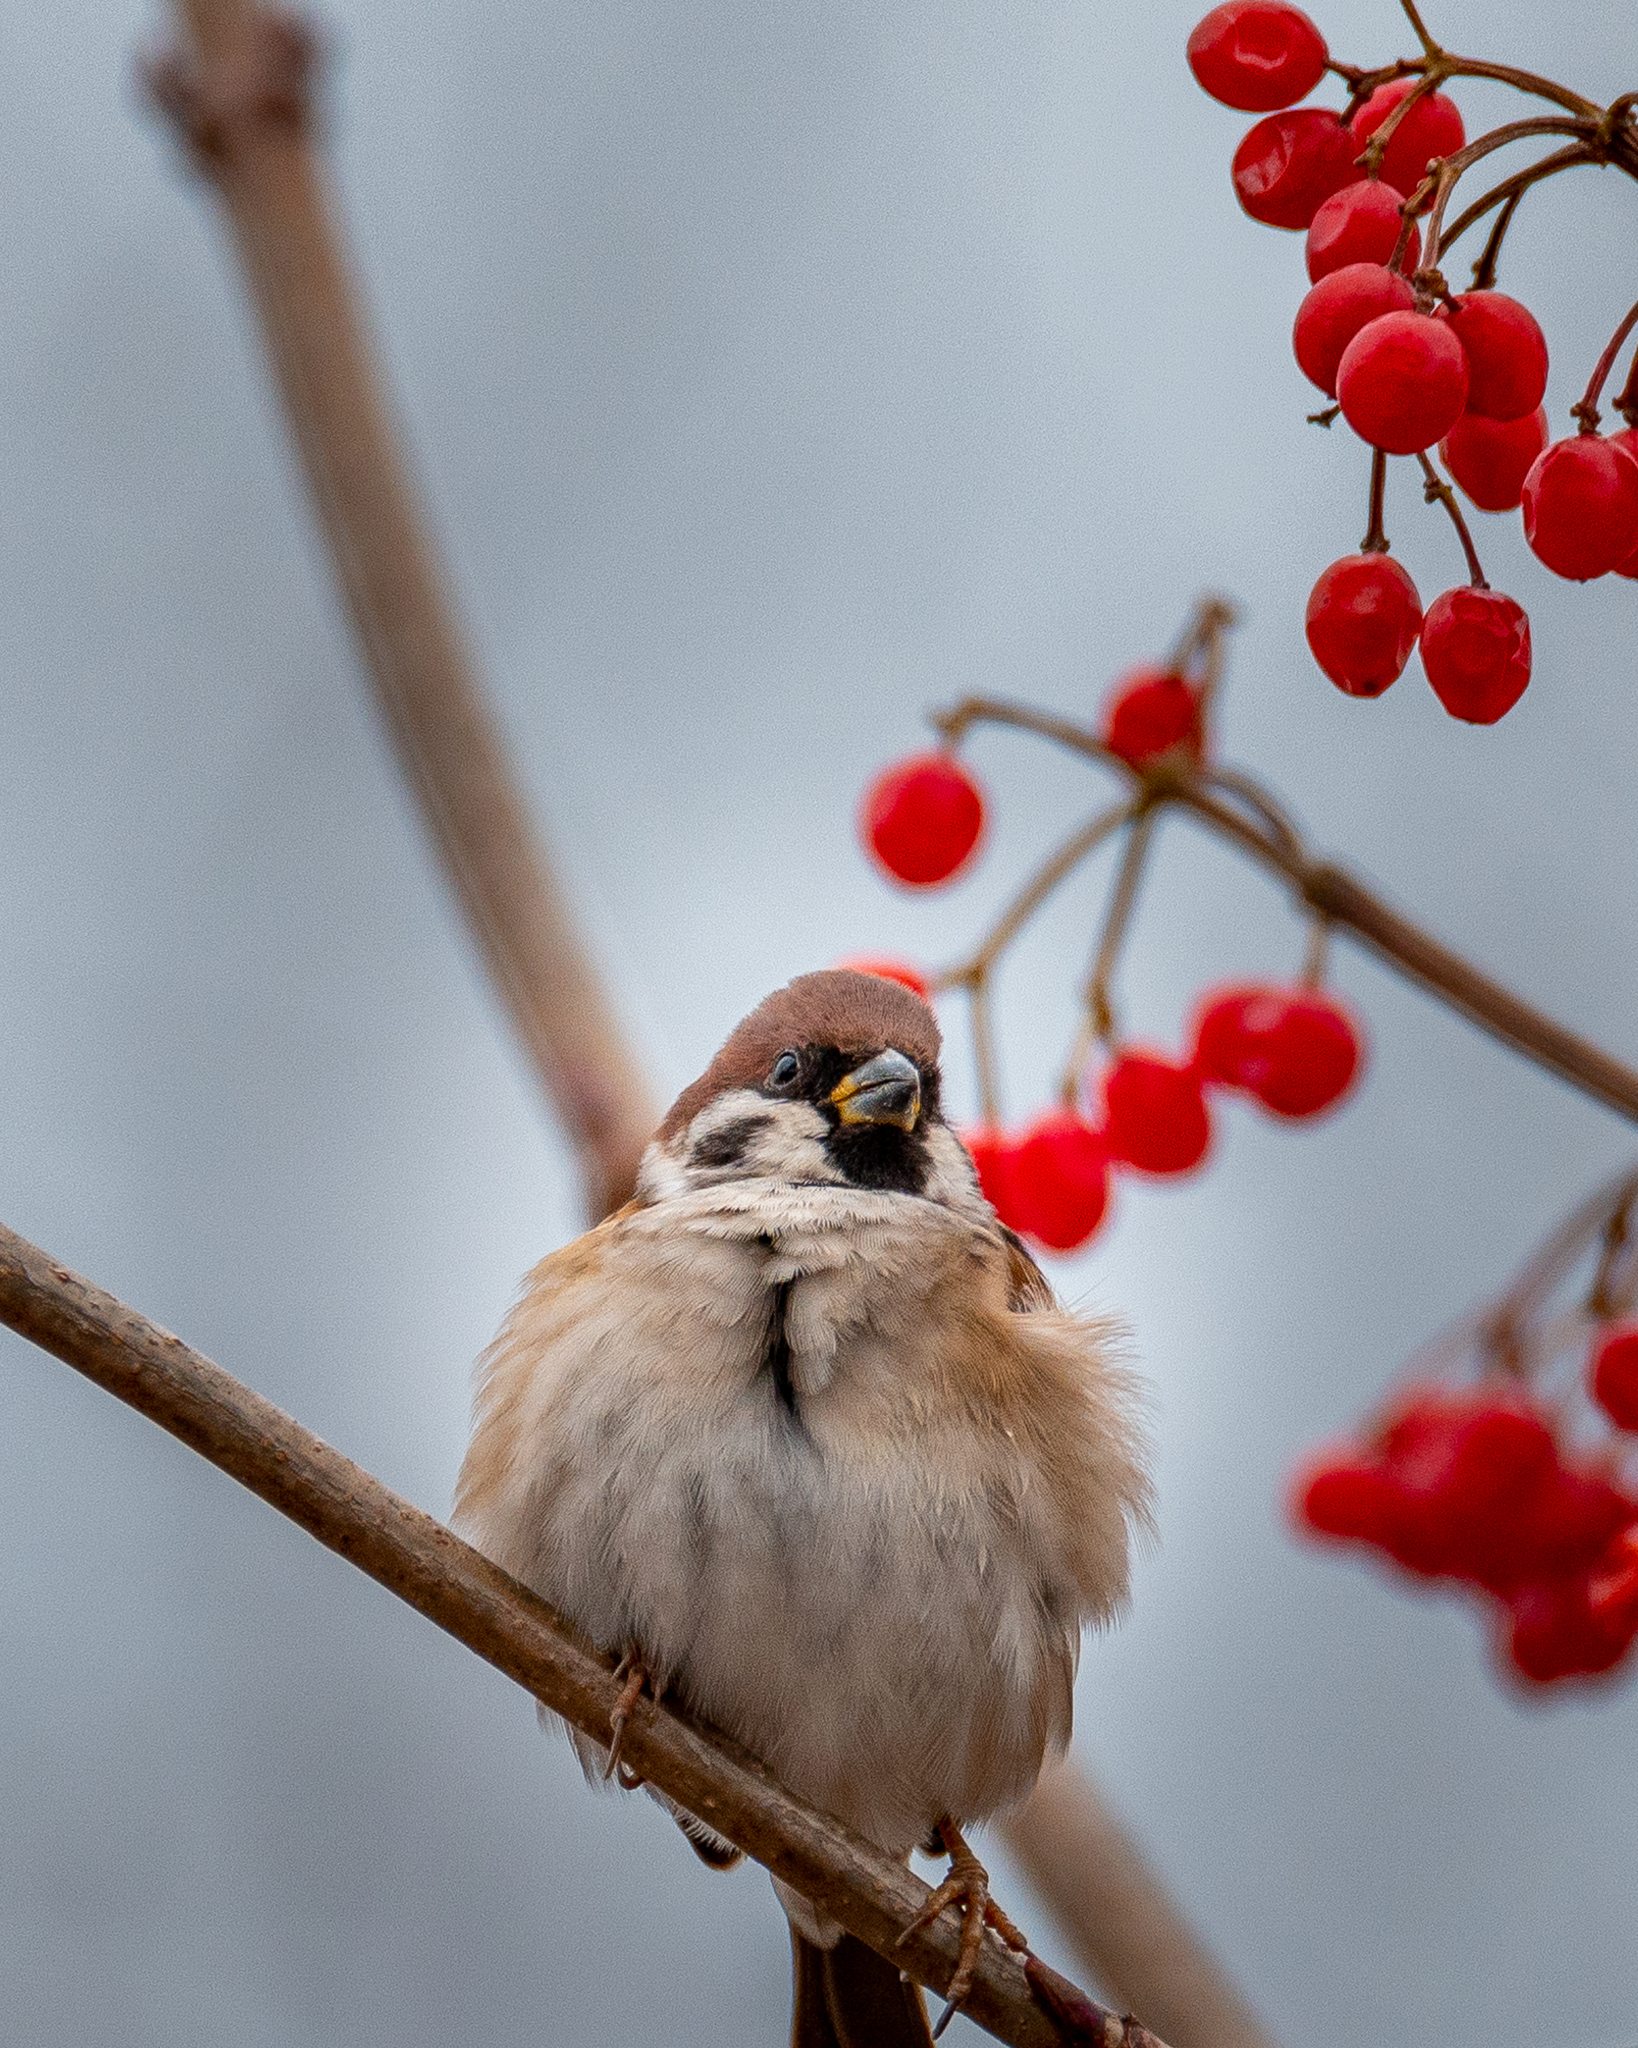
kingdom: Animalia
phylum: Chordata
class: Aves
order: Passeriformes
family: Passeridae
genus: Passer
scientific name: Passer montanus
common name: Eurasian tree sparrow
